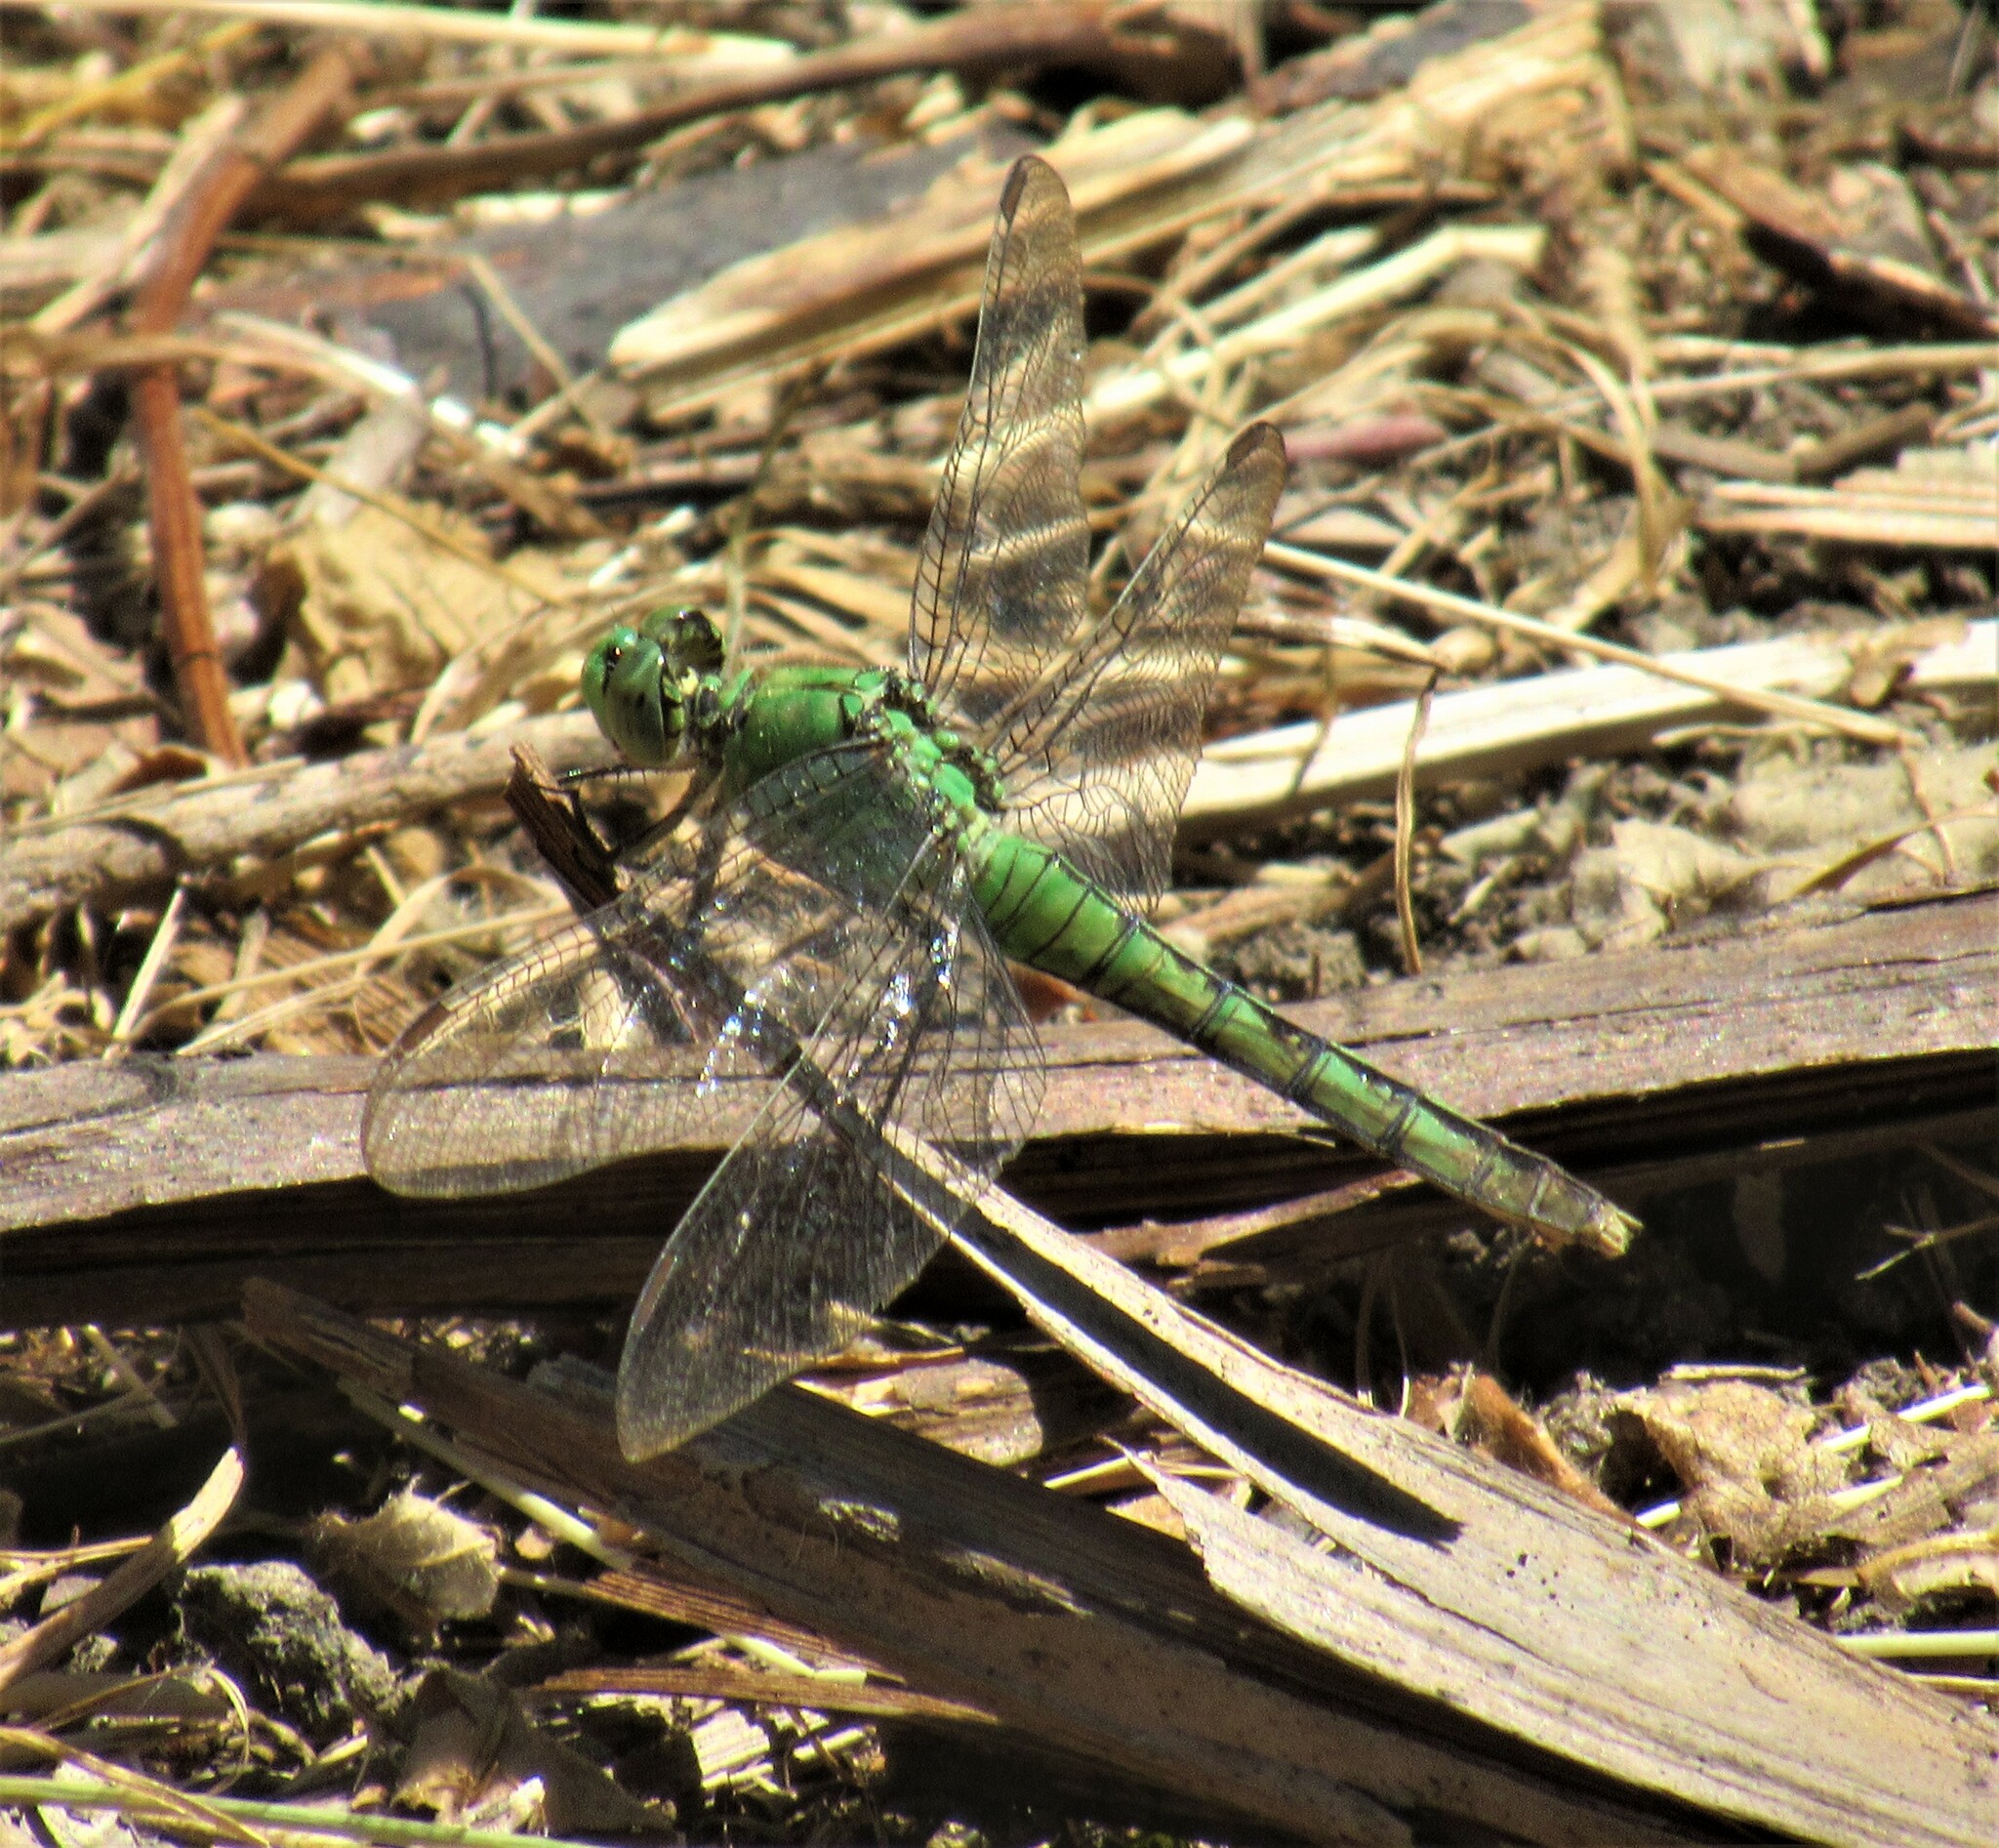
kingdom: Animalia
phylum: Arthropoda
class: Insecta
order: Odonata
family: Libellulidae
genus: Erythemis
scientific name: Erythemis collocata
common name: Western pondhawk
